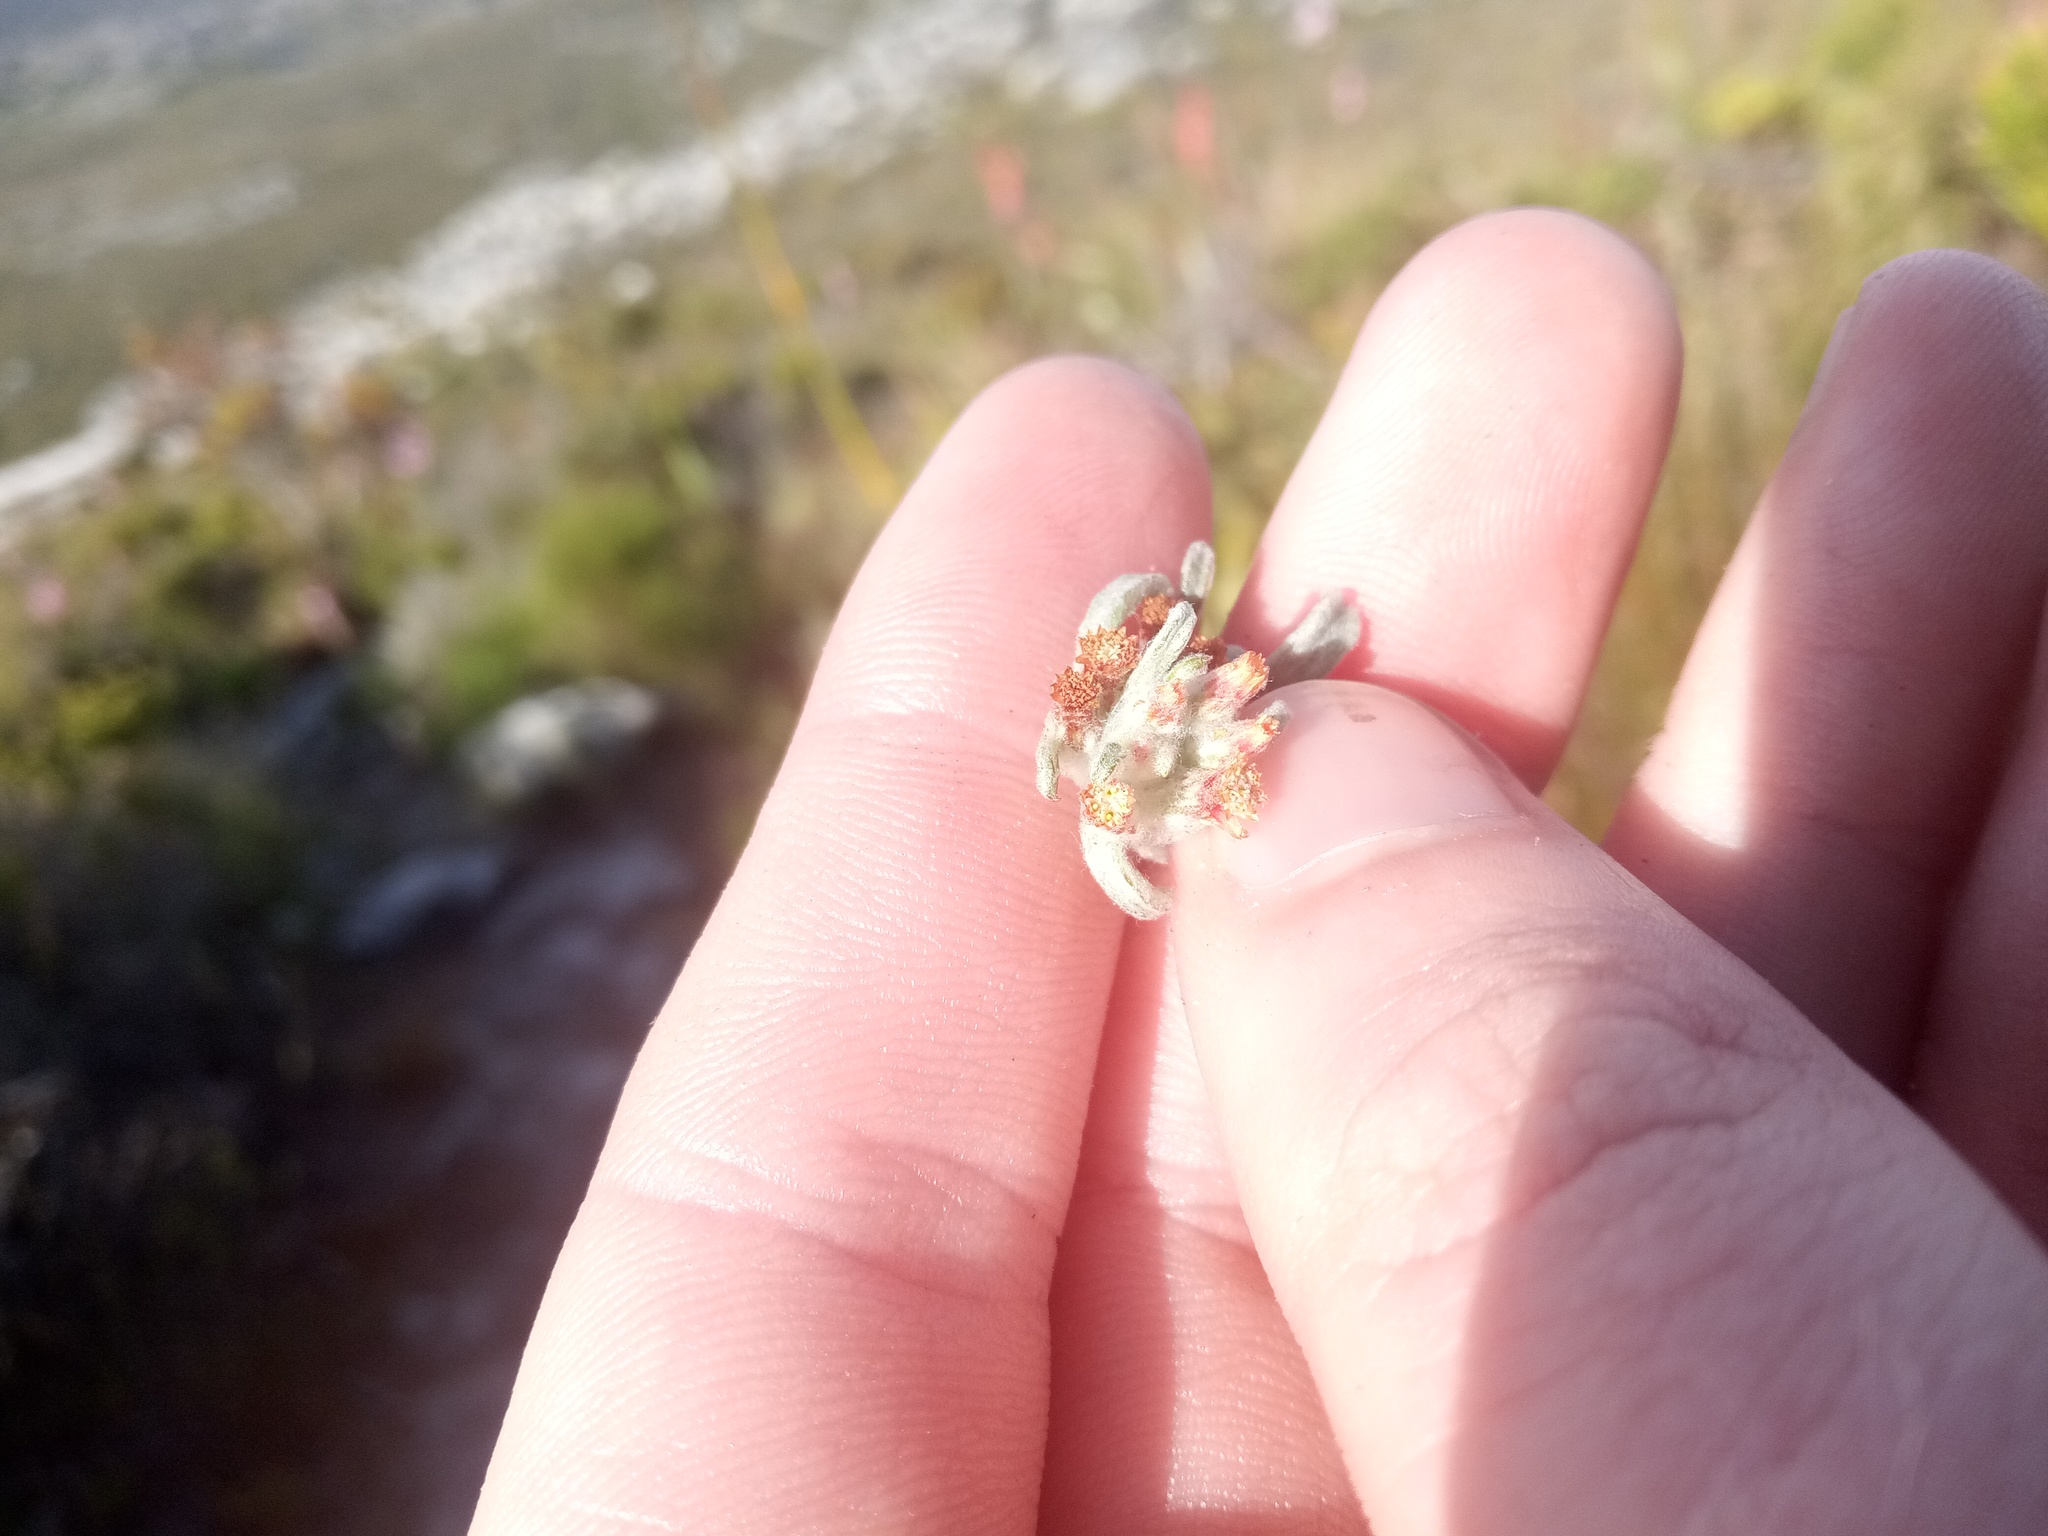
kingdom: Plantae
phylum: Tracheophyta
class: Magnoliopsida
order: Asterales
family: Asteraceae
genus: Helichrysum
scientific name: Helichrysum tinctum
